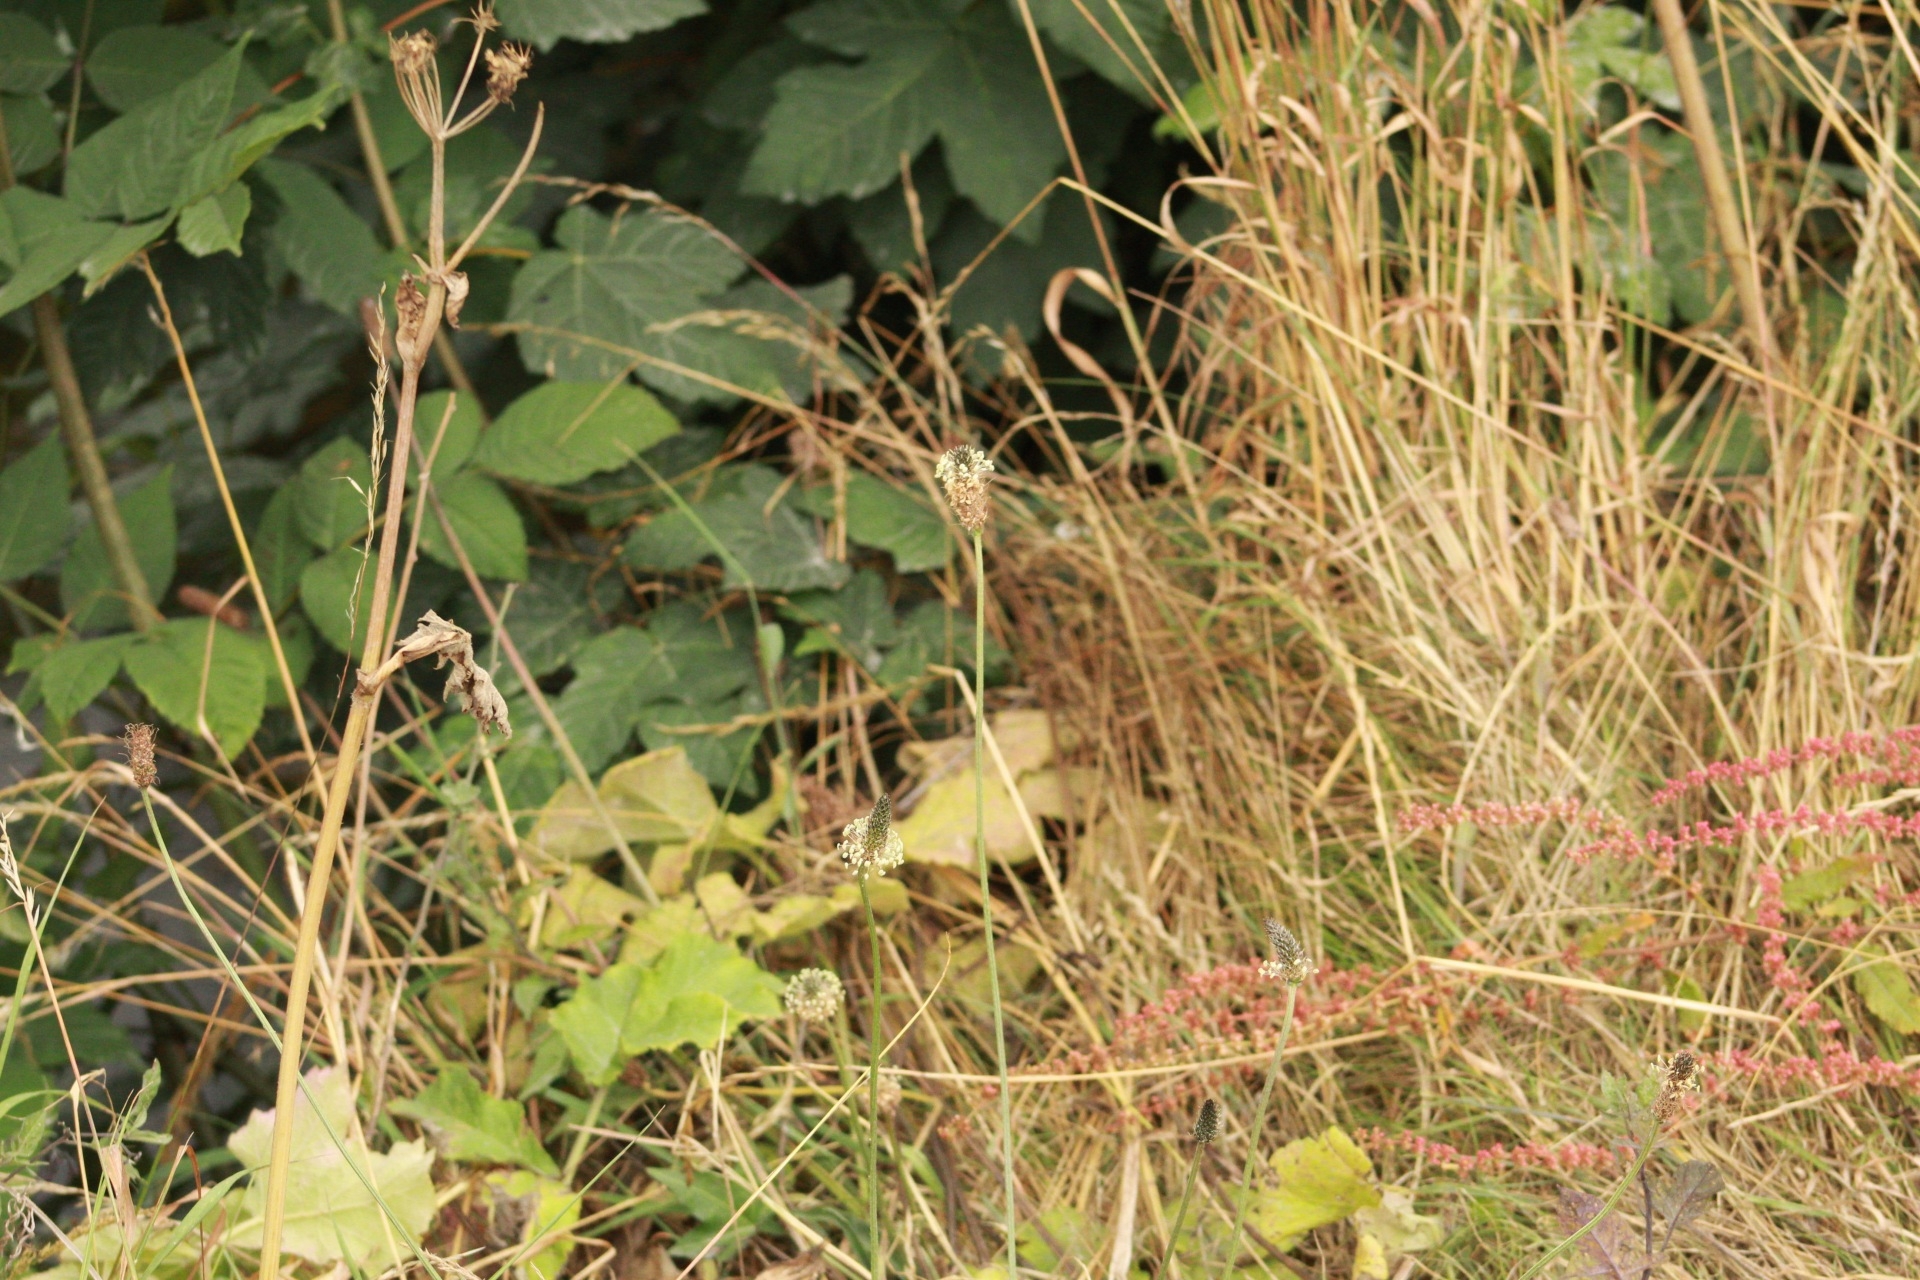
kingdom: Plantae
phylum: Tracheophyta
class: Magnoliopsida
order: Lamiales
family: Plantaginaceae
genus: Plantago
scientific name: Plantago lanceolata
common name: Ribwort plantain
